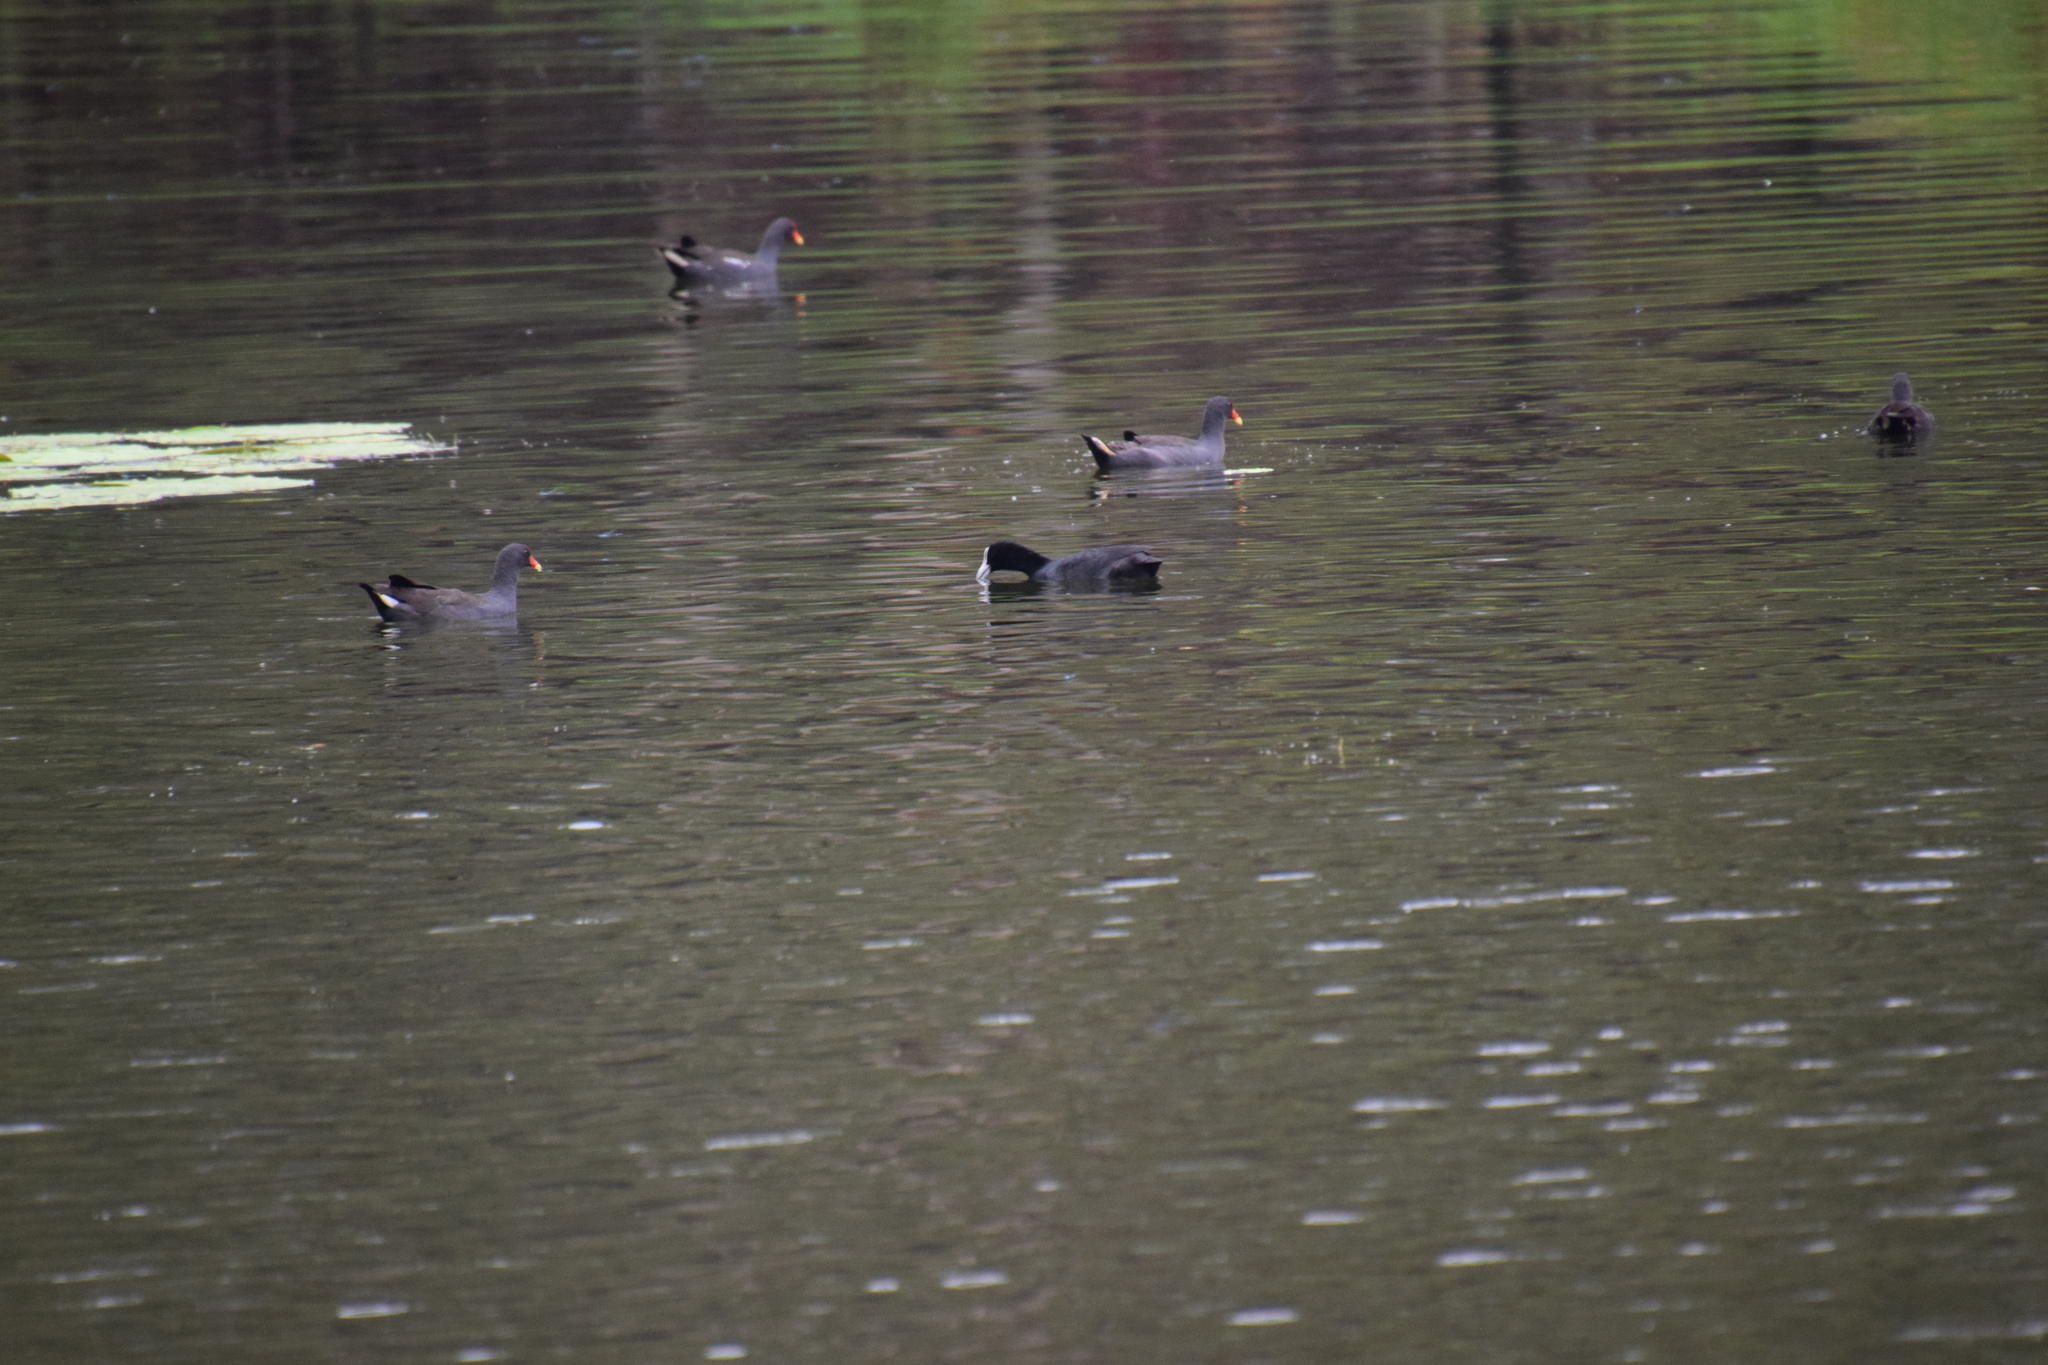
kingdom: Animalia
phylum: Chordata
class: Aves
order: Gruiformes
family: Rallidae
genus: Fulica
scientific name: Fulica atra
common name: Eurasian coot
